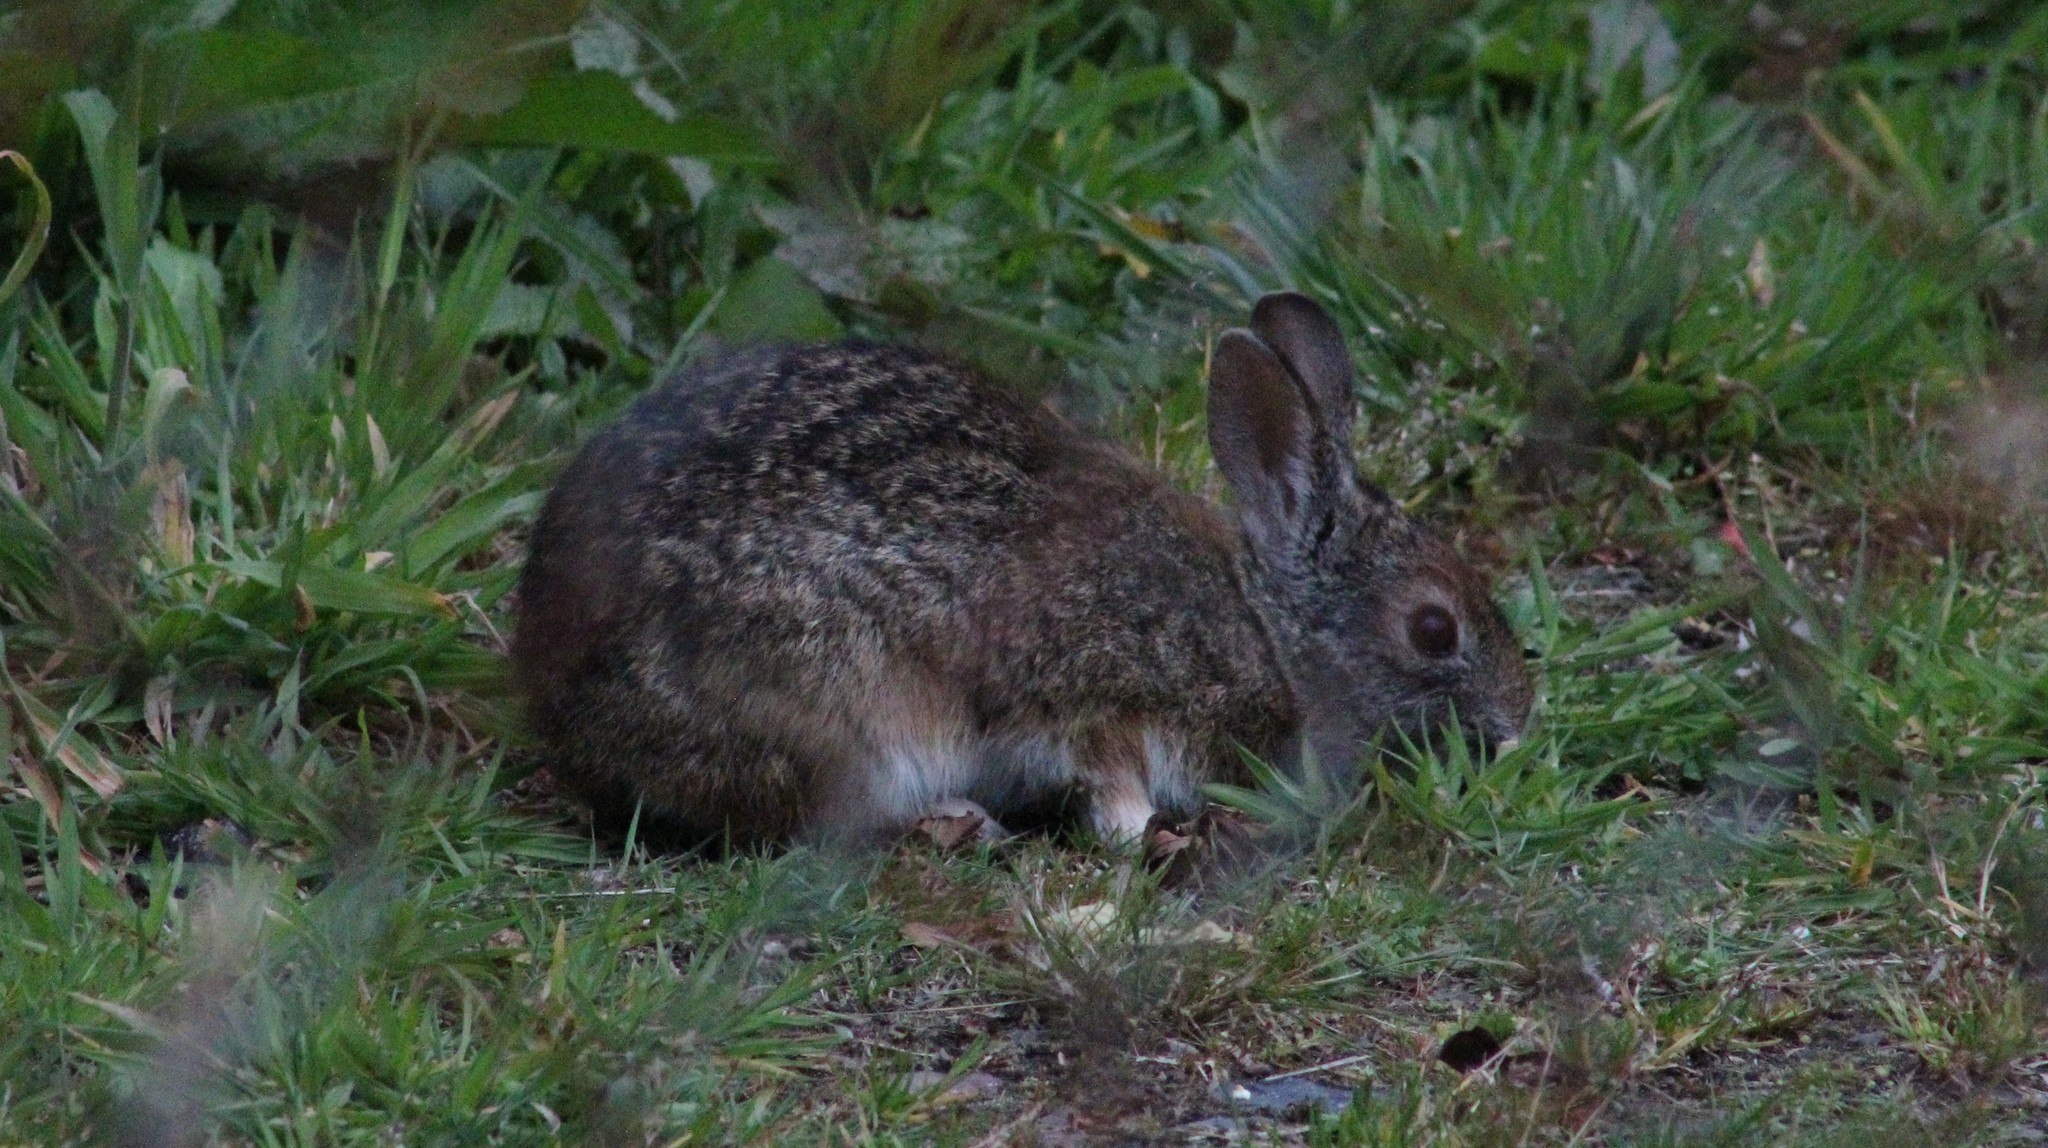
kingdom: Animalia
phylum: Chordata
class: Mammalia
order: Lagomorpha
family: Leporidae
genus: Sylvilagus
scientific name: Sylvilagus andinus
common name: Andean cottontail
